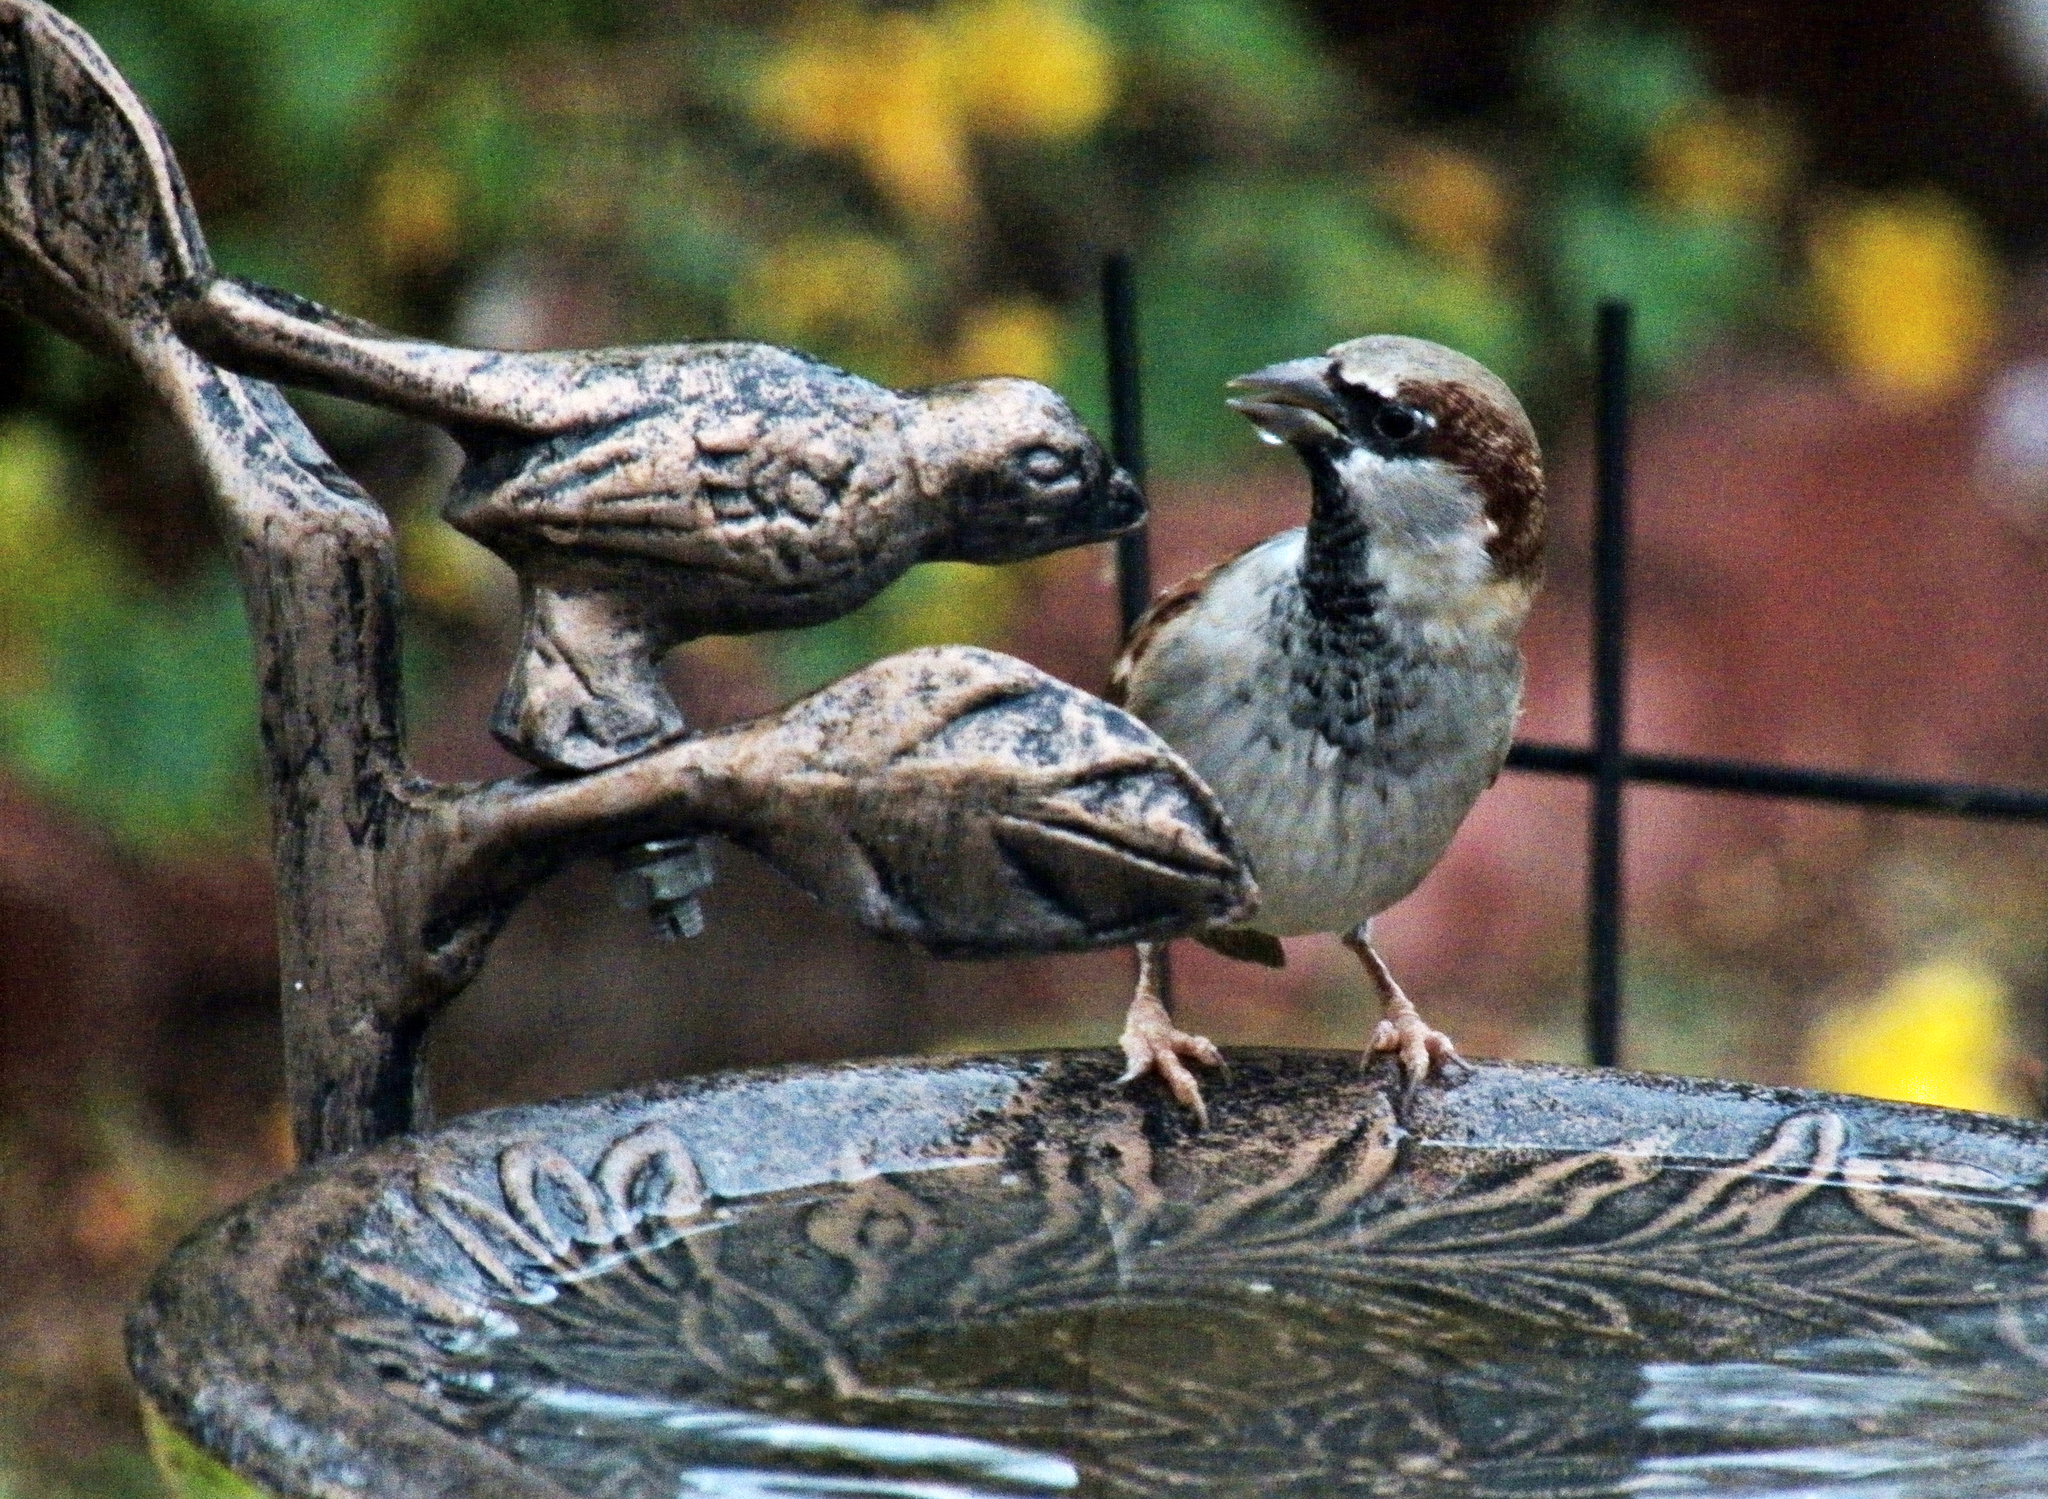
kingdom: Animalia
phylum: Chordata
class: Aves
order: Passeriformes
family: Passeridae
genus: Passer
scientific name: Passer domesticus
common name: House sparrow
